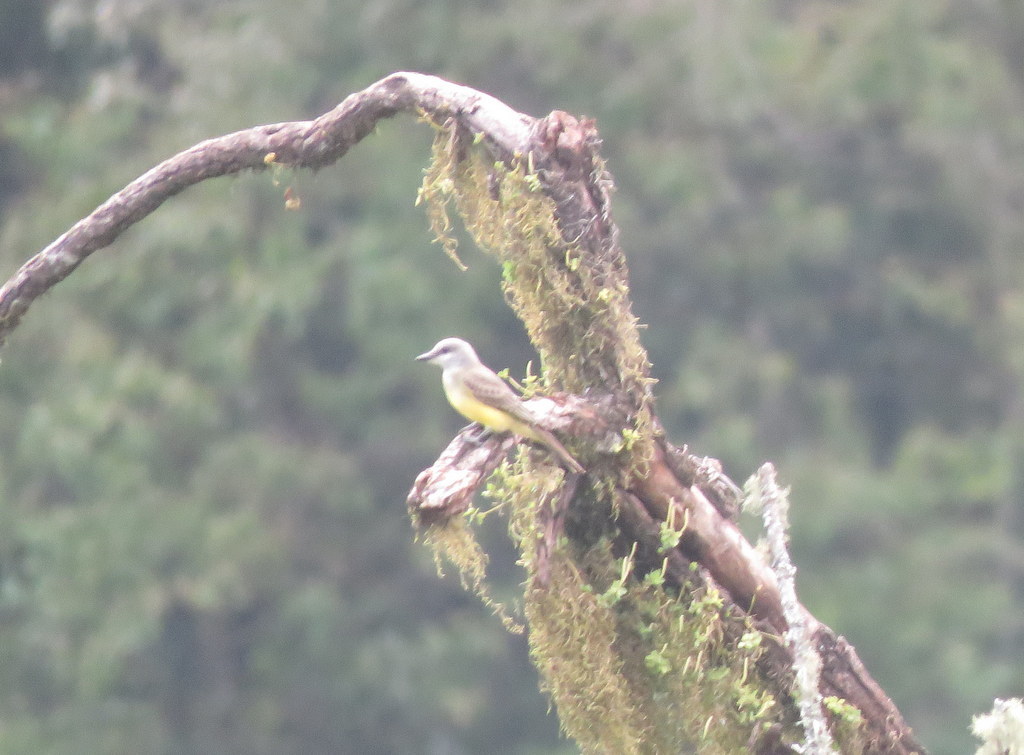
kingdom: Animalia
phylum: Chordata
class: Aves
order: Passeriformes
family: Tyrannidae
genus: Tyrannus
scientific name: Tyrannus melancholicus
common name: Tropical kingbird
